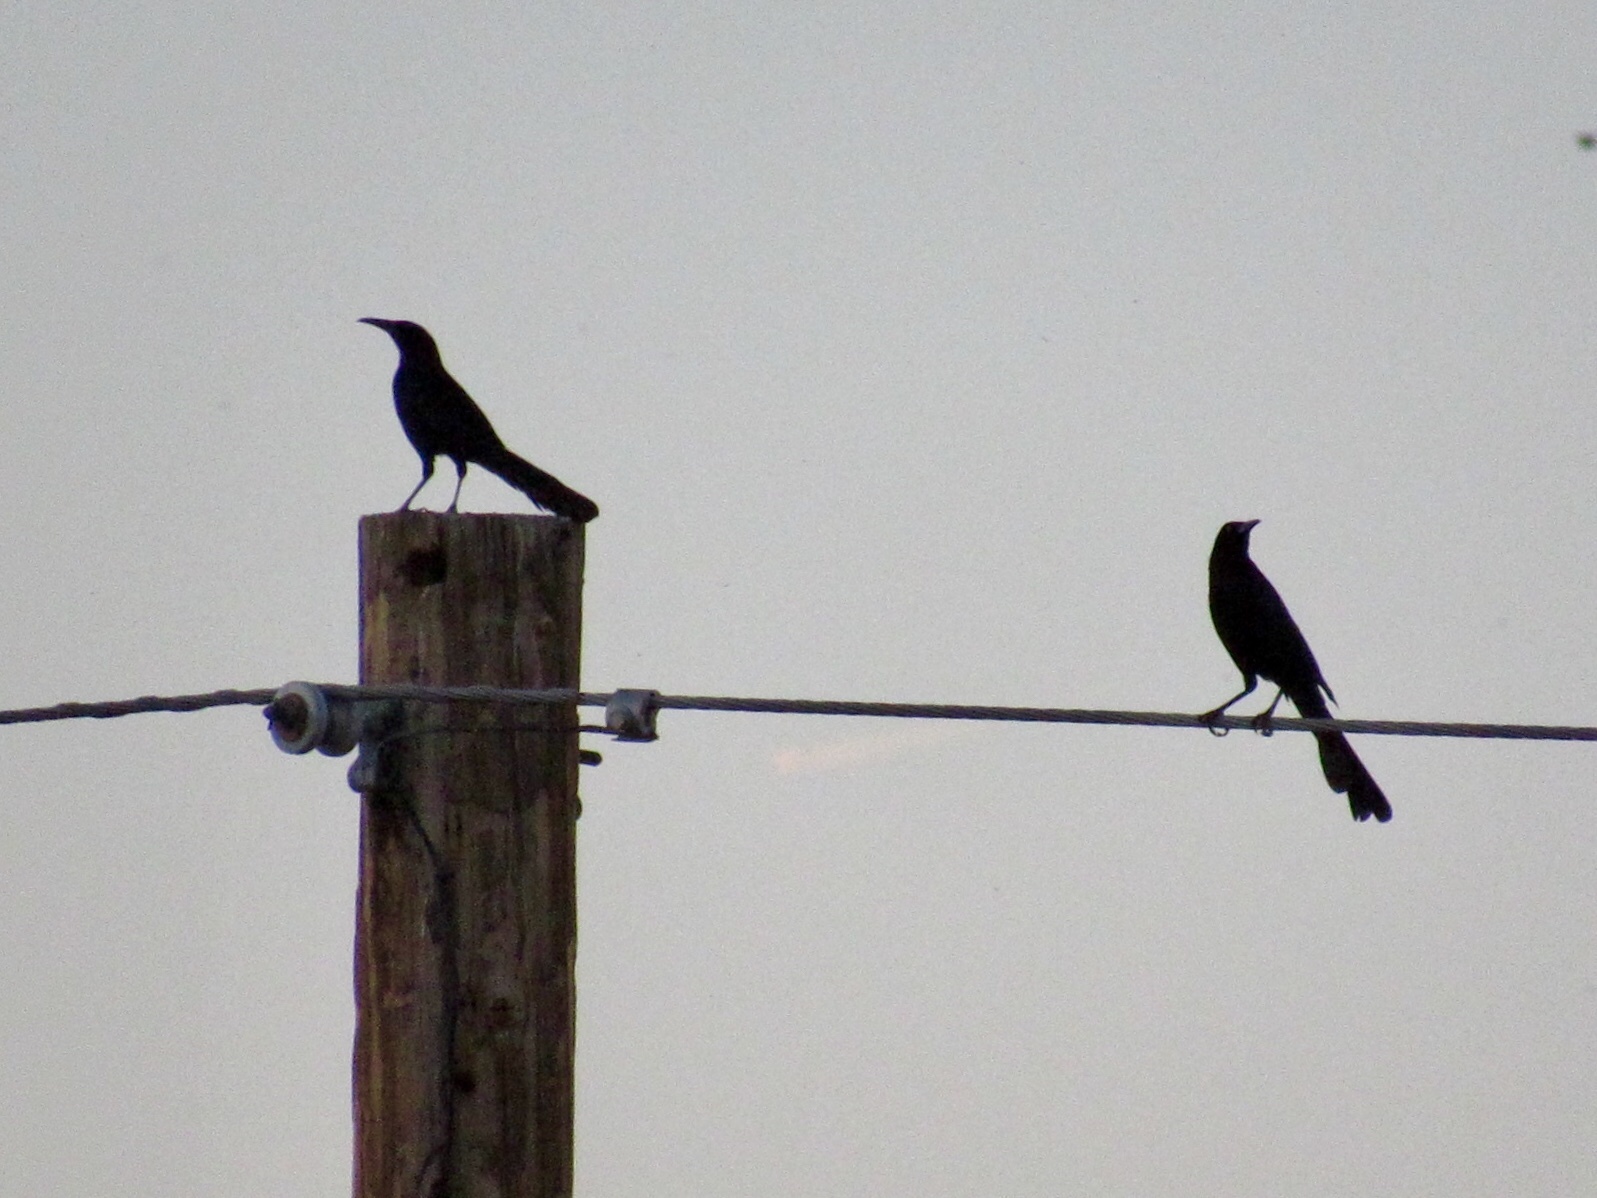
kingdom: Animalia
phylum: Chordata
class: Aves
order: Passeriformes
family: Icteridae
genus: Quiscalus
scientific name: Quiscalus mexicanus
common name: Great-tailed grackle
